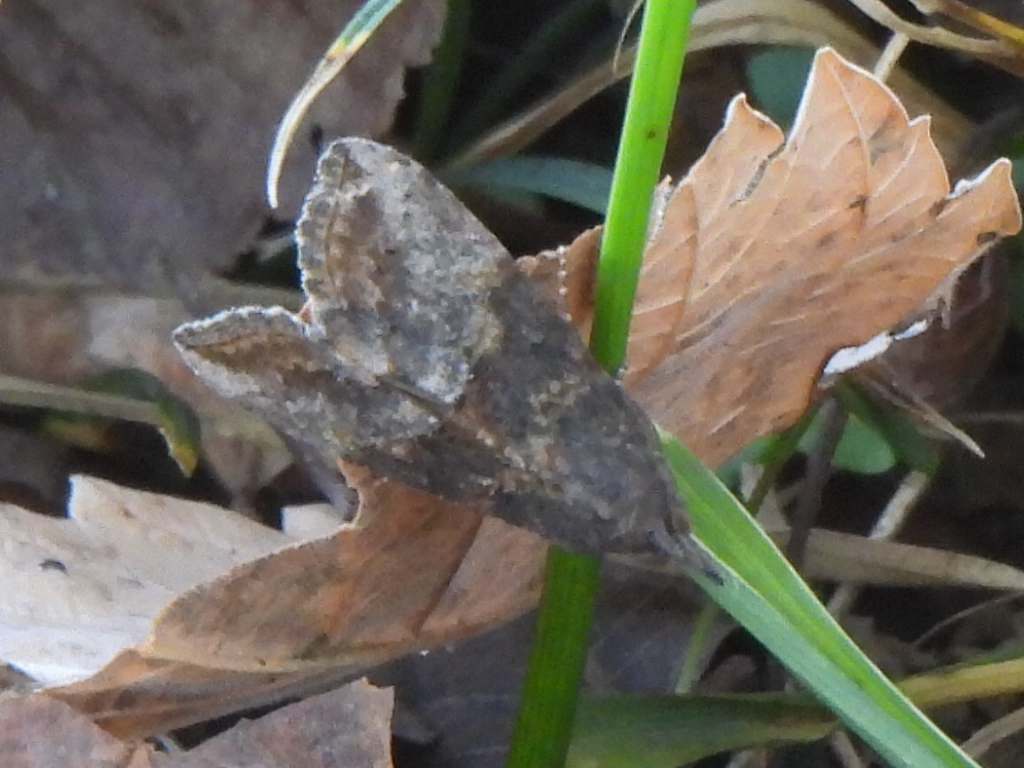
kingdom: Animalia
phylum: Arthropoda
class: Insecta
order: Lepidoptera
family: Erebidae
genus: Hypena
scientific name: Hypena scabra
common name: Green cloverworm
